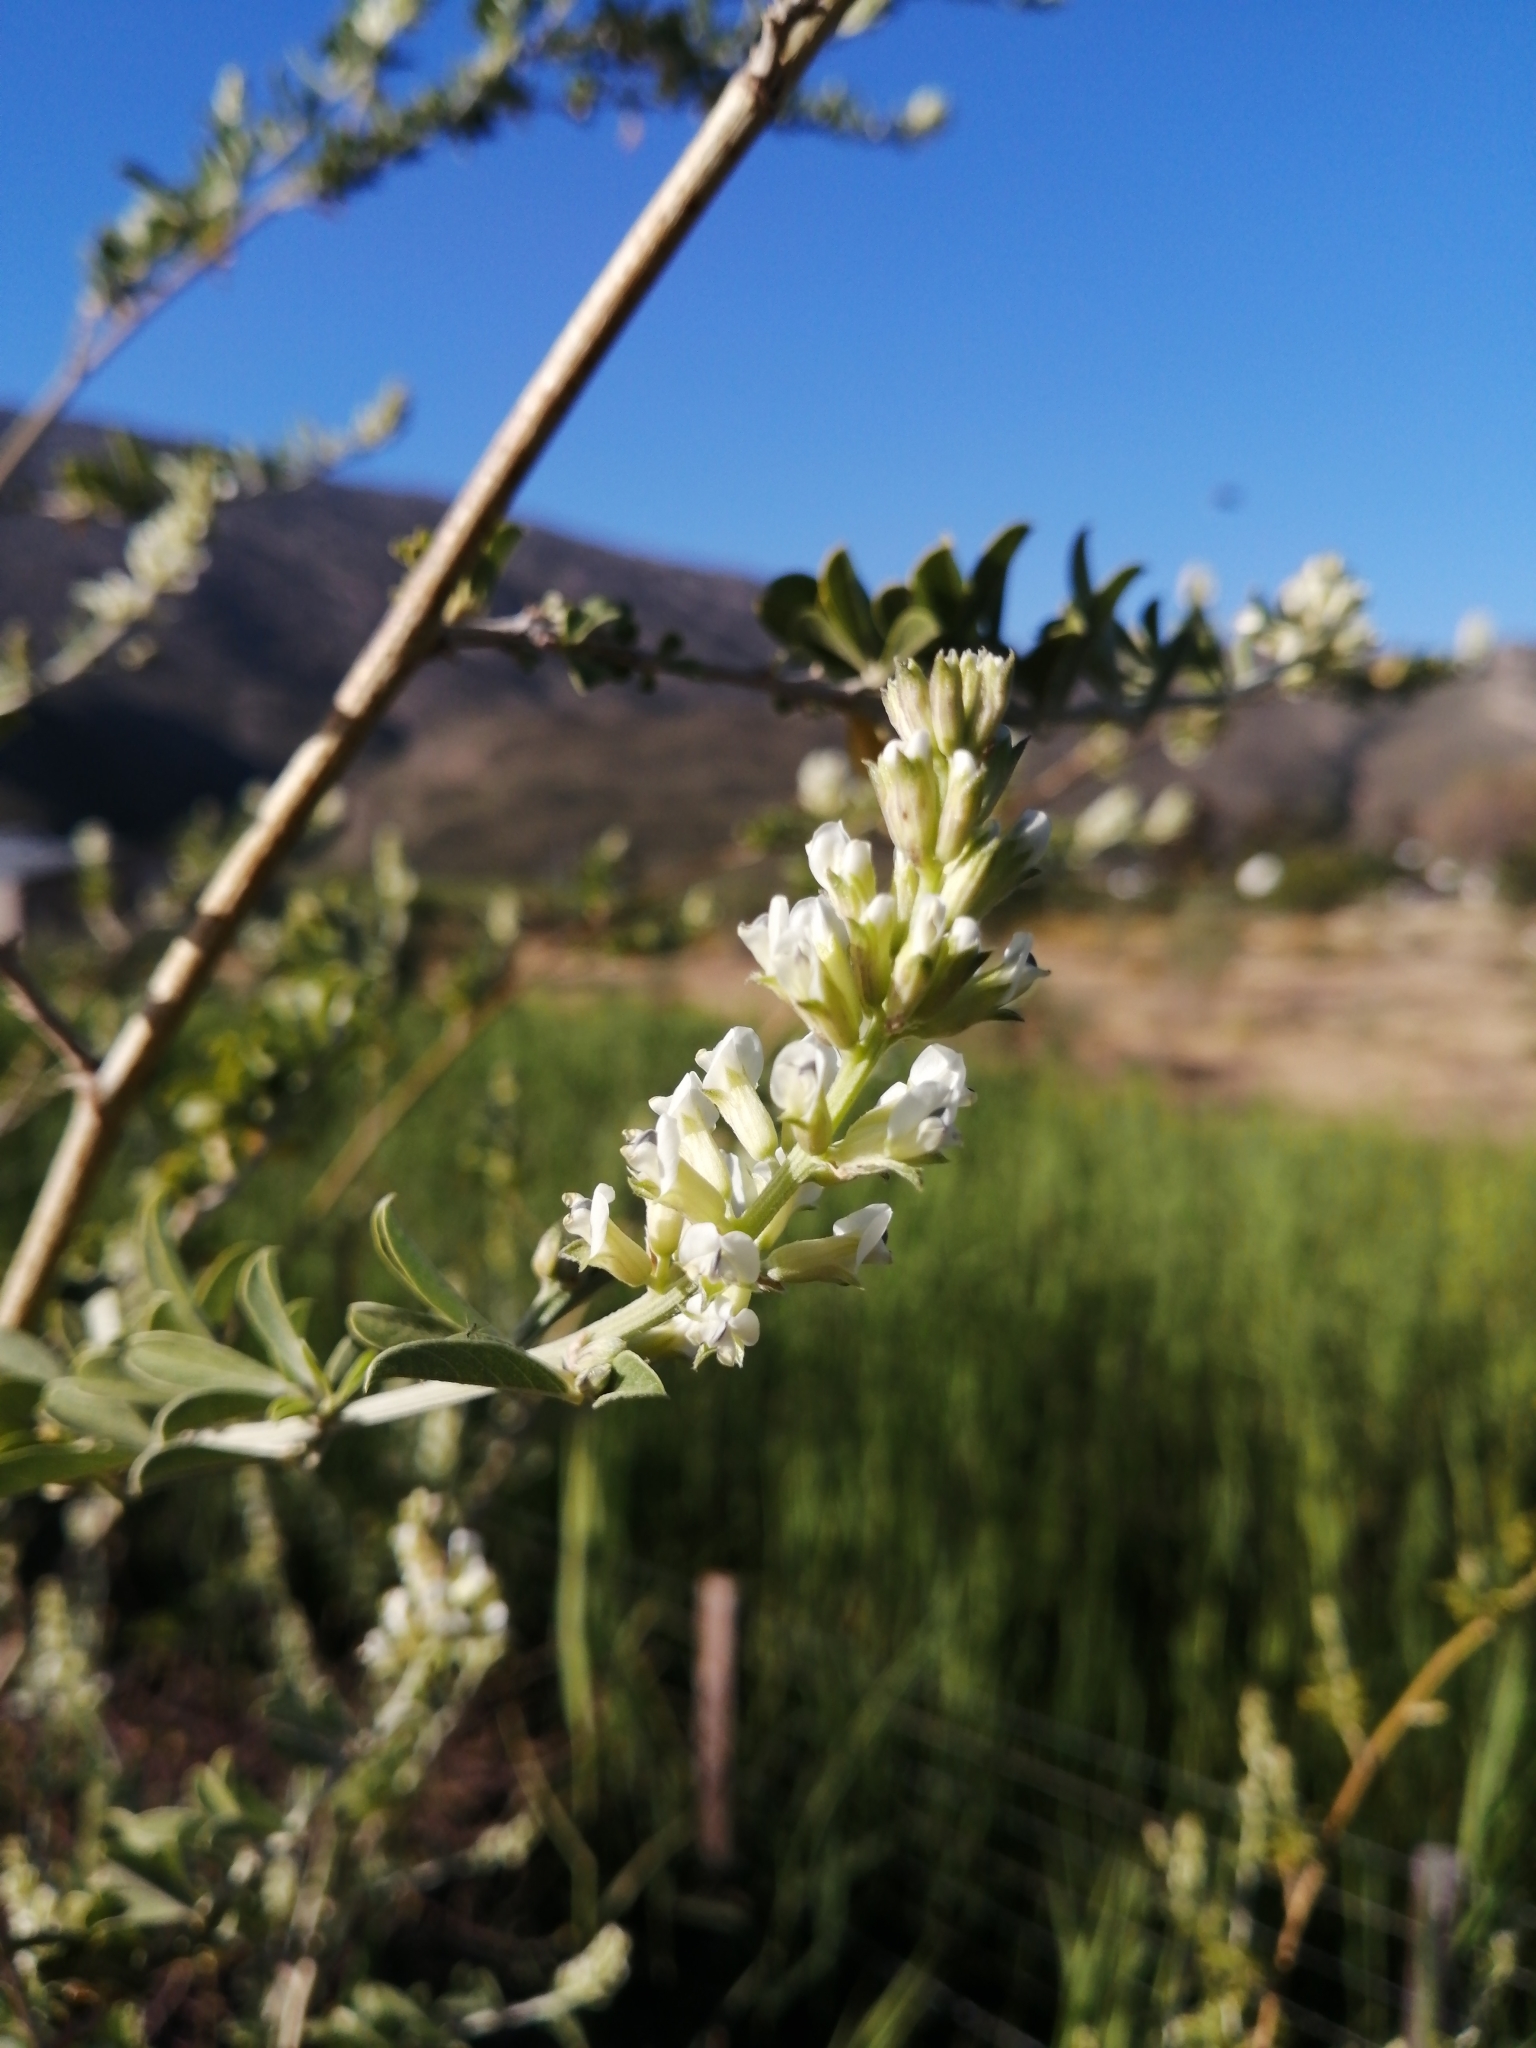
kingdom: Plantae
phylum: Tracheophyta
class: Magnoliopsida
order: Fabales
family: Fabaceae
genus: Psoralea
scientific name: Psoralea striata
